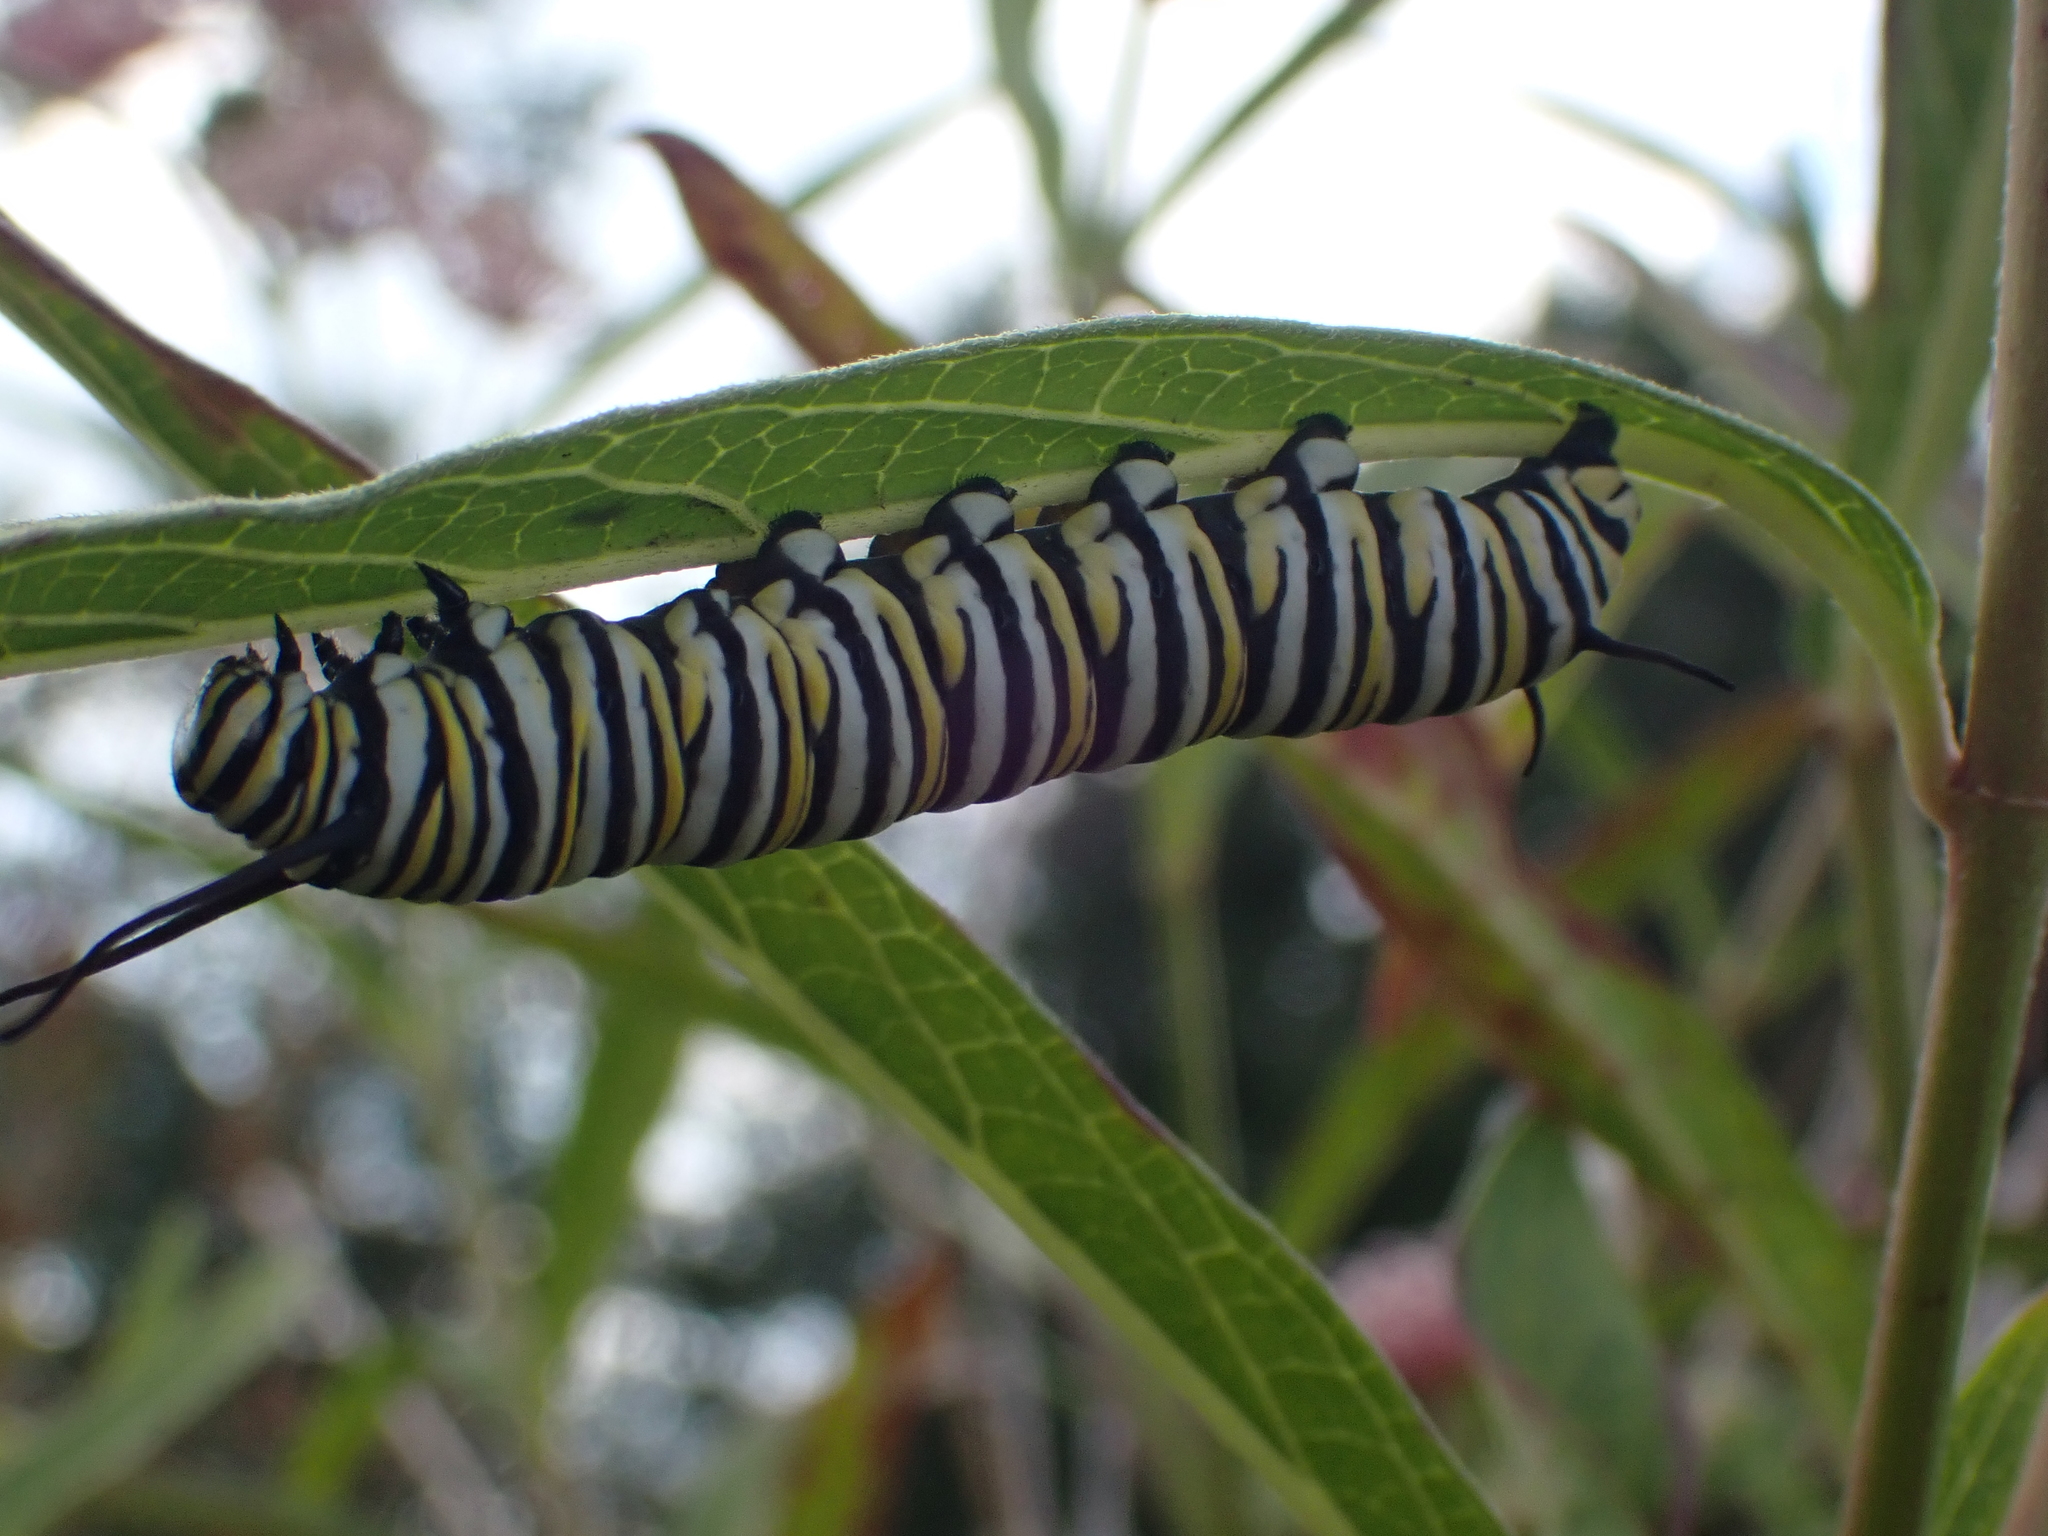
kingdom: Animalia
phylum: Arthropoda
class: Insecta
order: Lepidoptera
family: Nymphalidae
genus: Danaus
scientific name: Danaus plexippus
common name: Monarch
